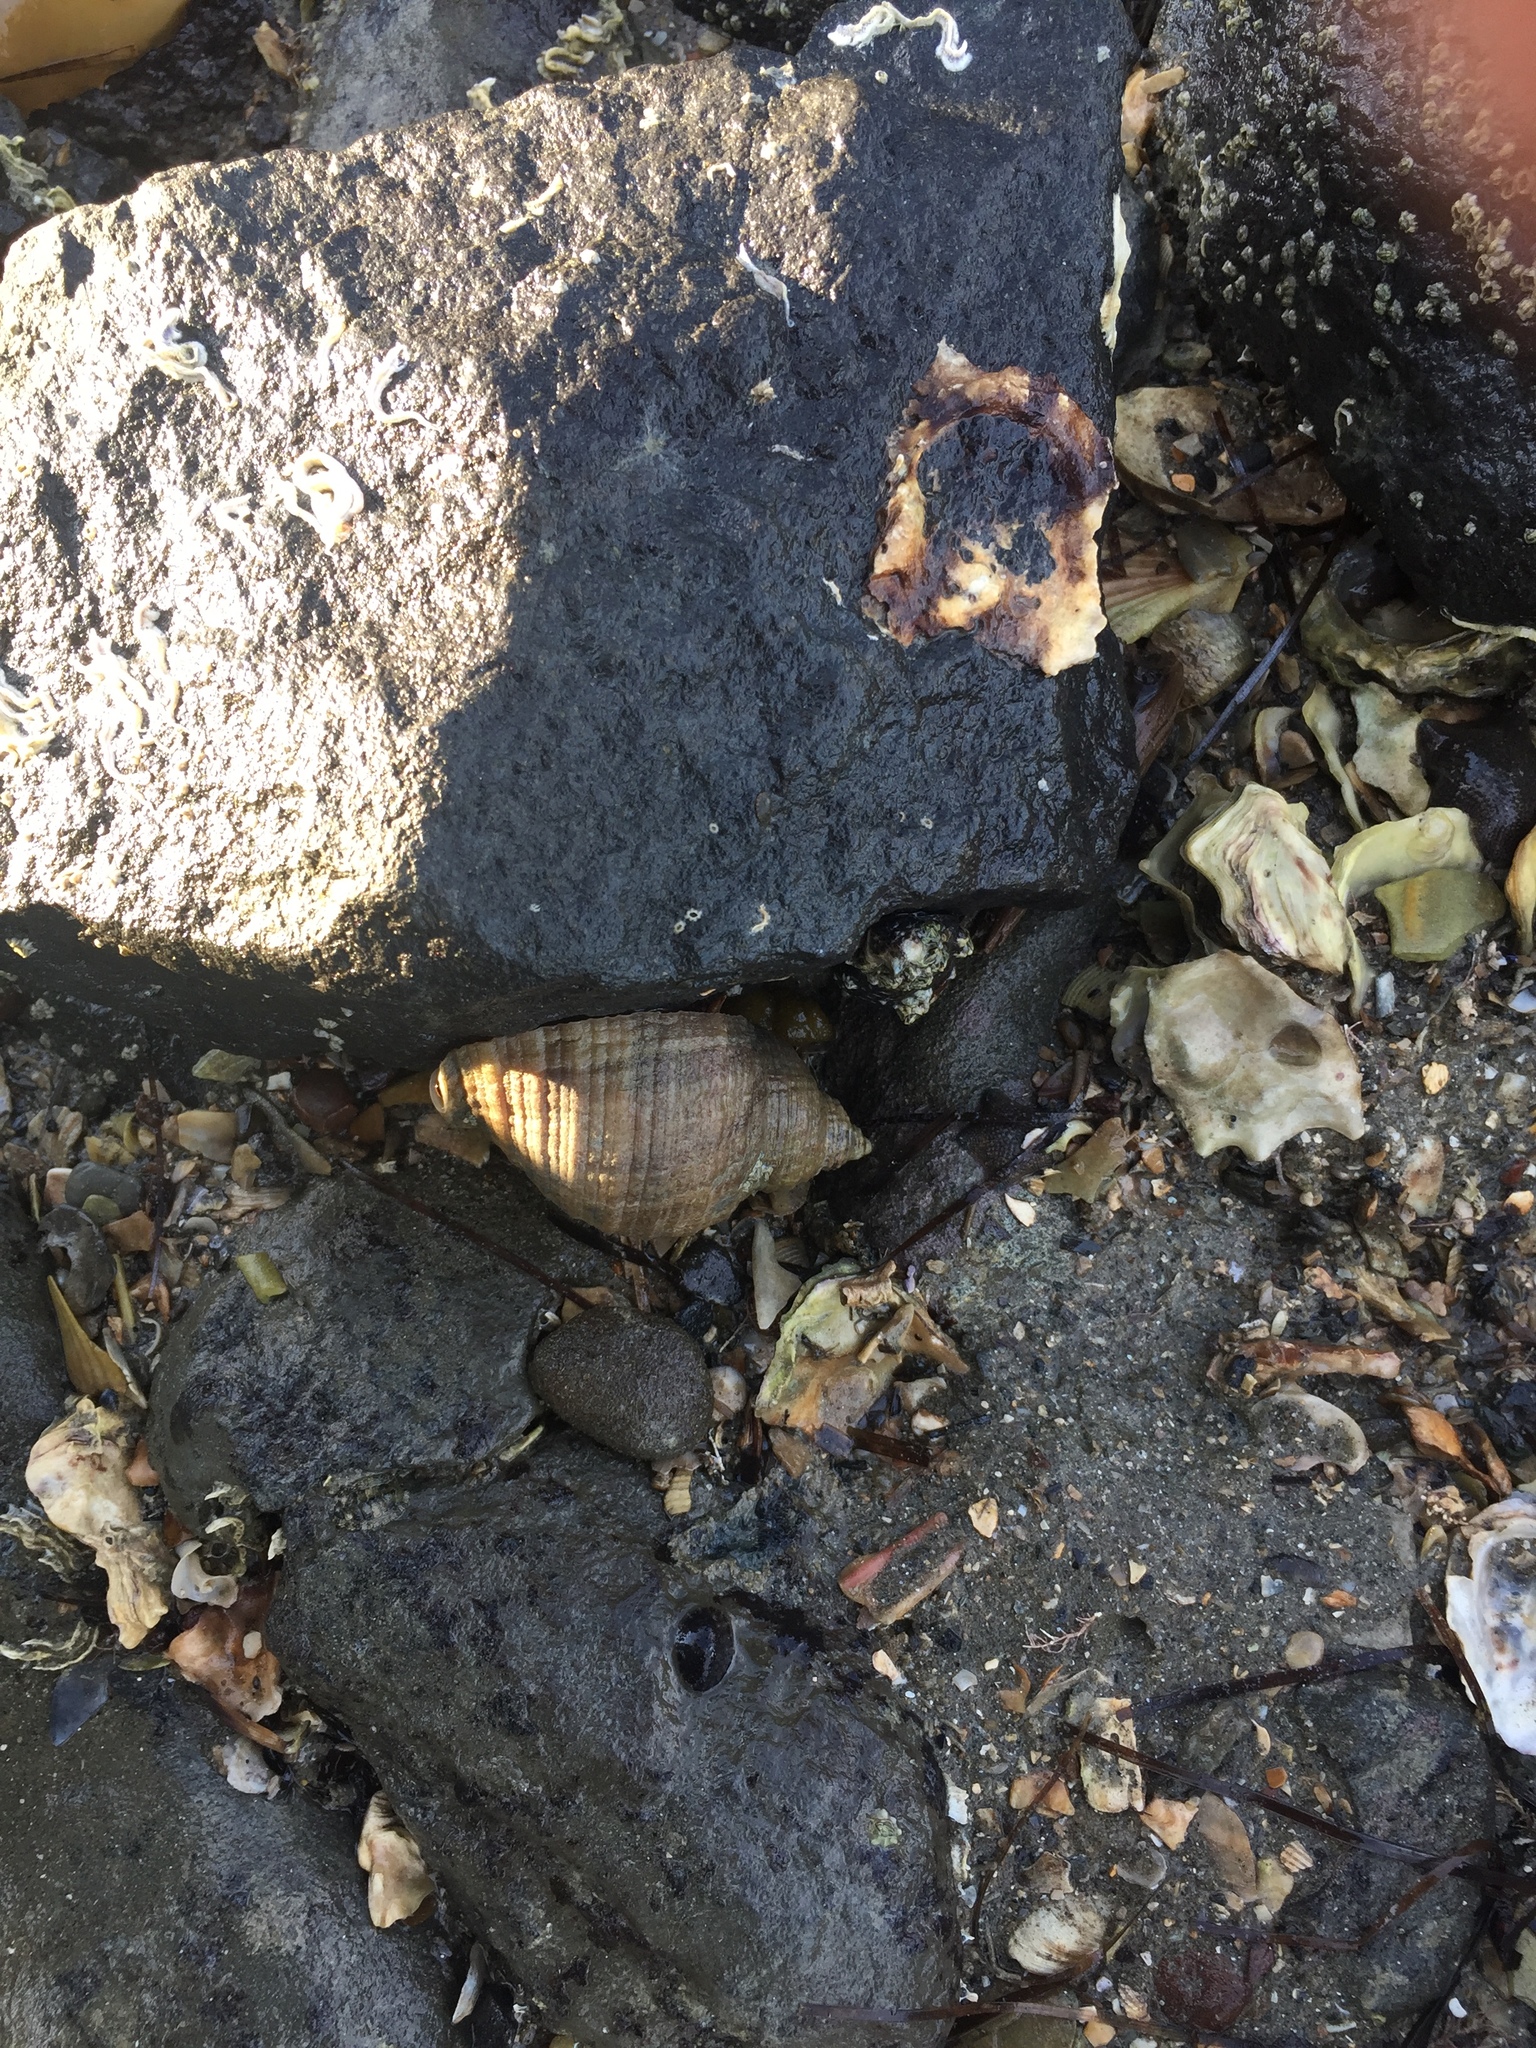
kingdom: Animalia
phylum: Mollusca
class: Gastropoda
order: Neogastropoda
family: Muricidae
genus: Dicathais
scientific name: Dicathais orbita
